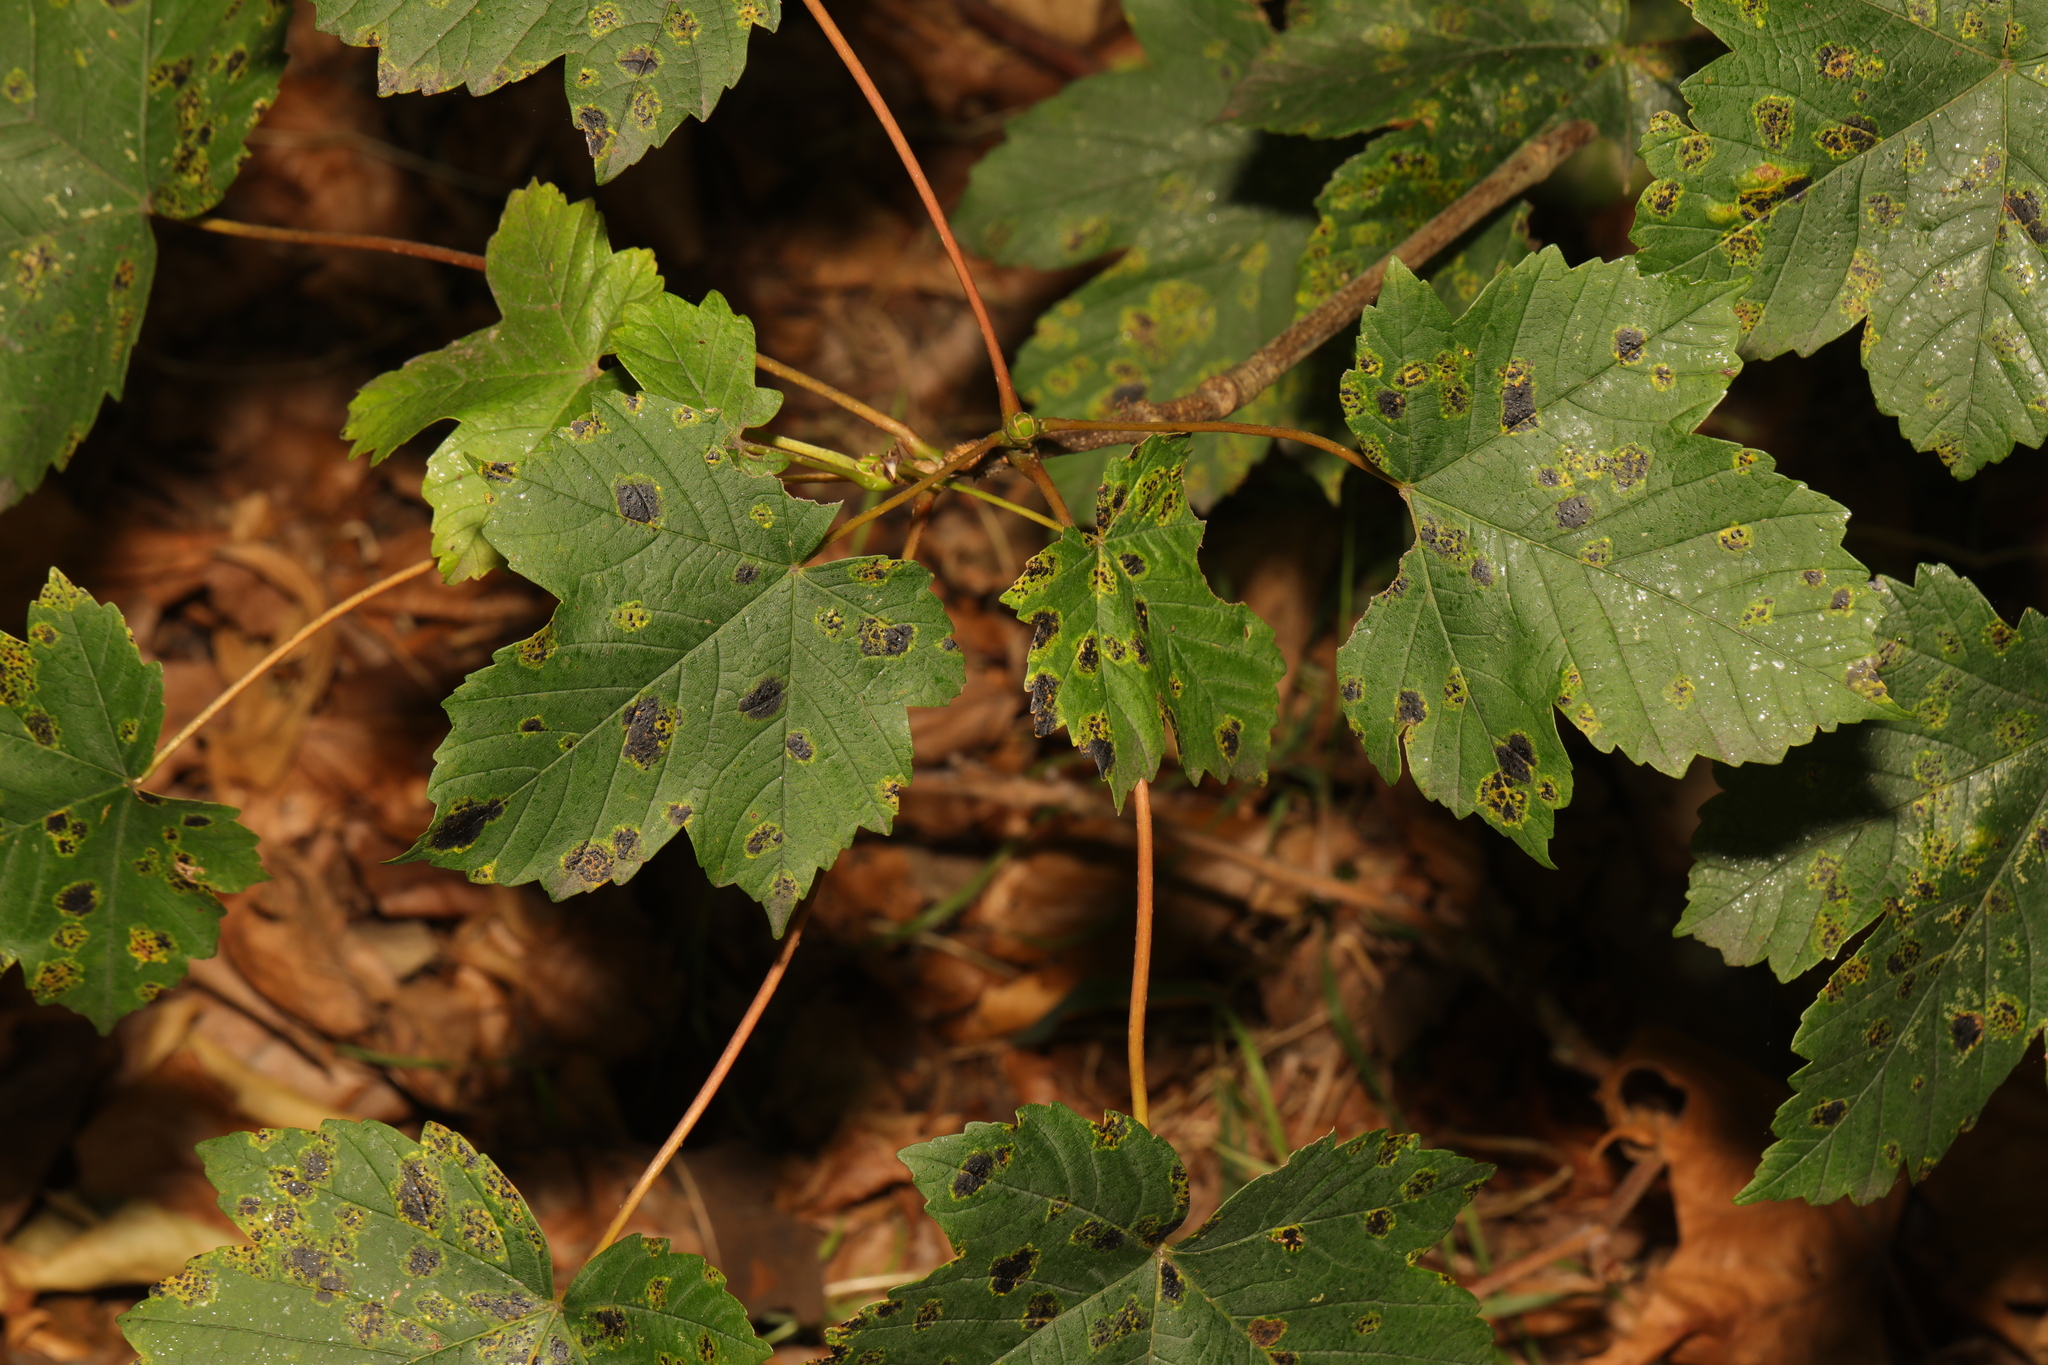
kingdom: Plantae
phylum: Tracheophyta
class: Magnoliopsida
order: Sapindales
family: Sapindaceae
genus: Acer
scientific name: Acer pseudoplatanus
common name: Sycamore
